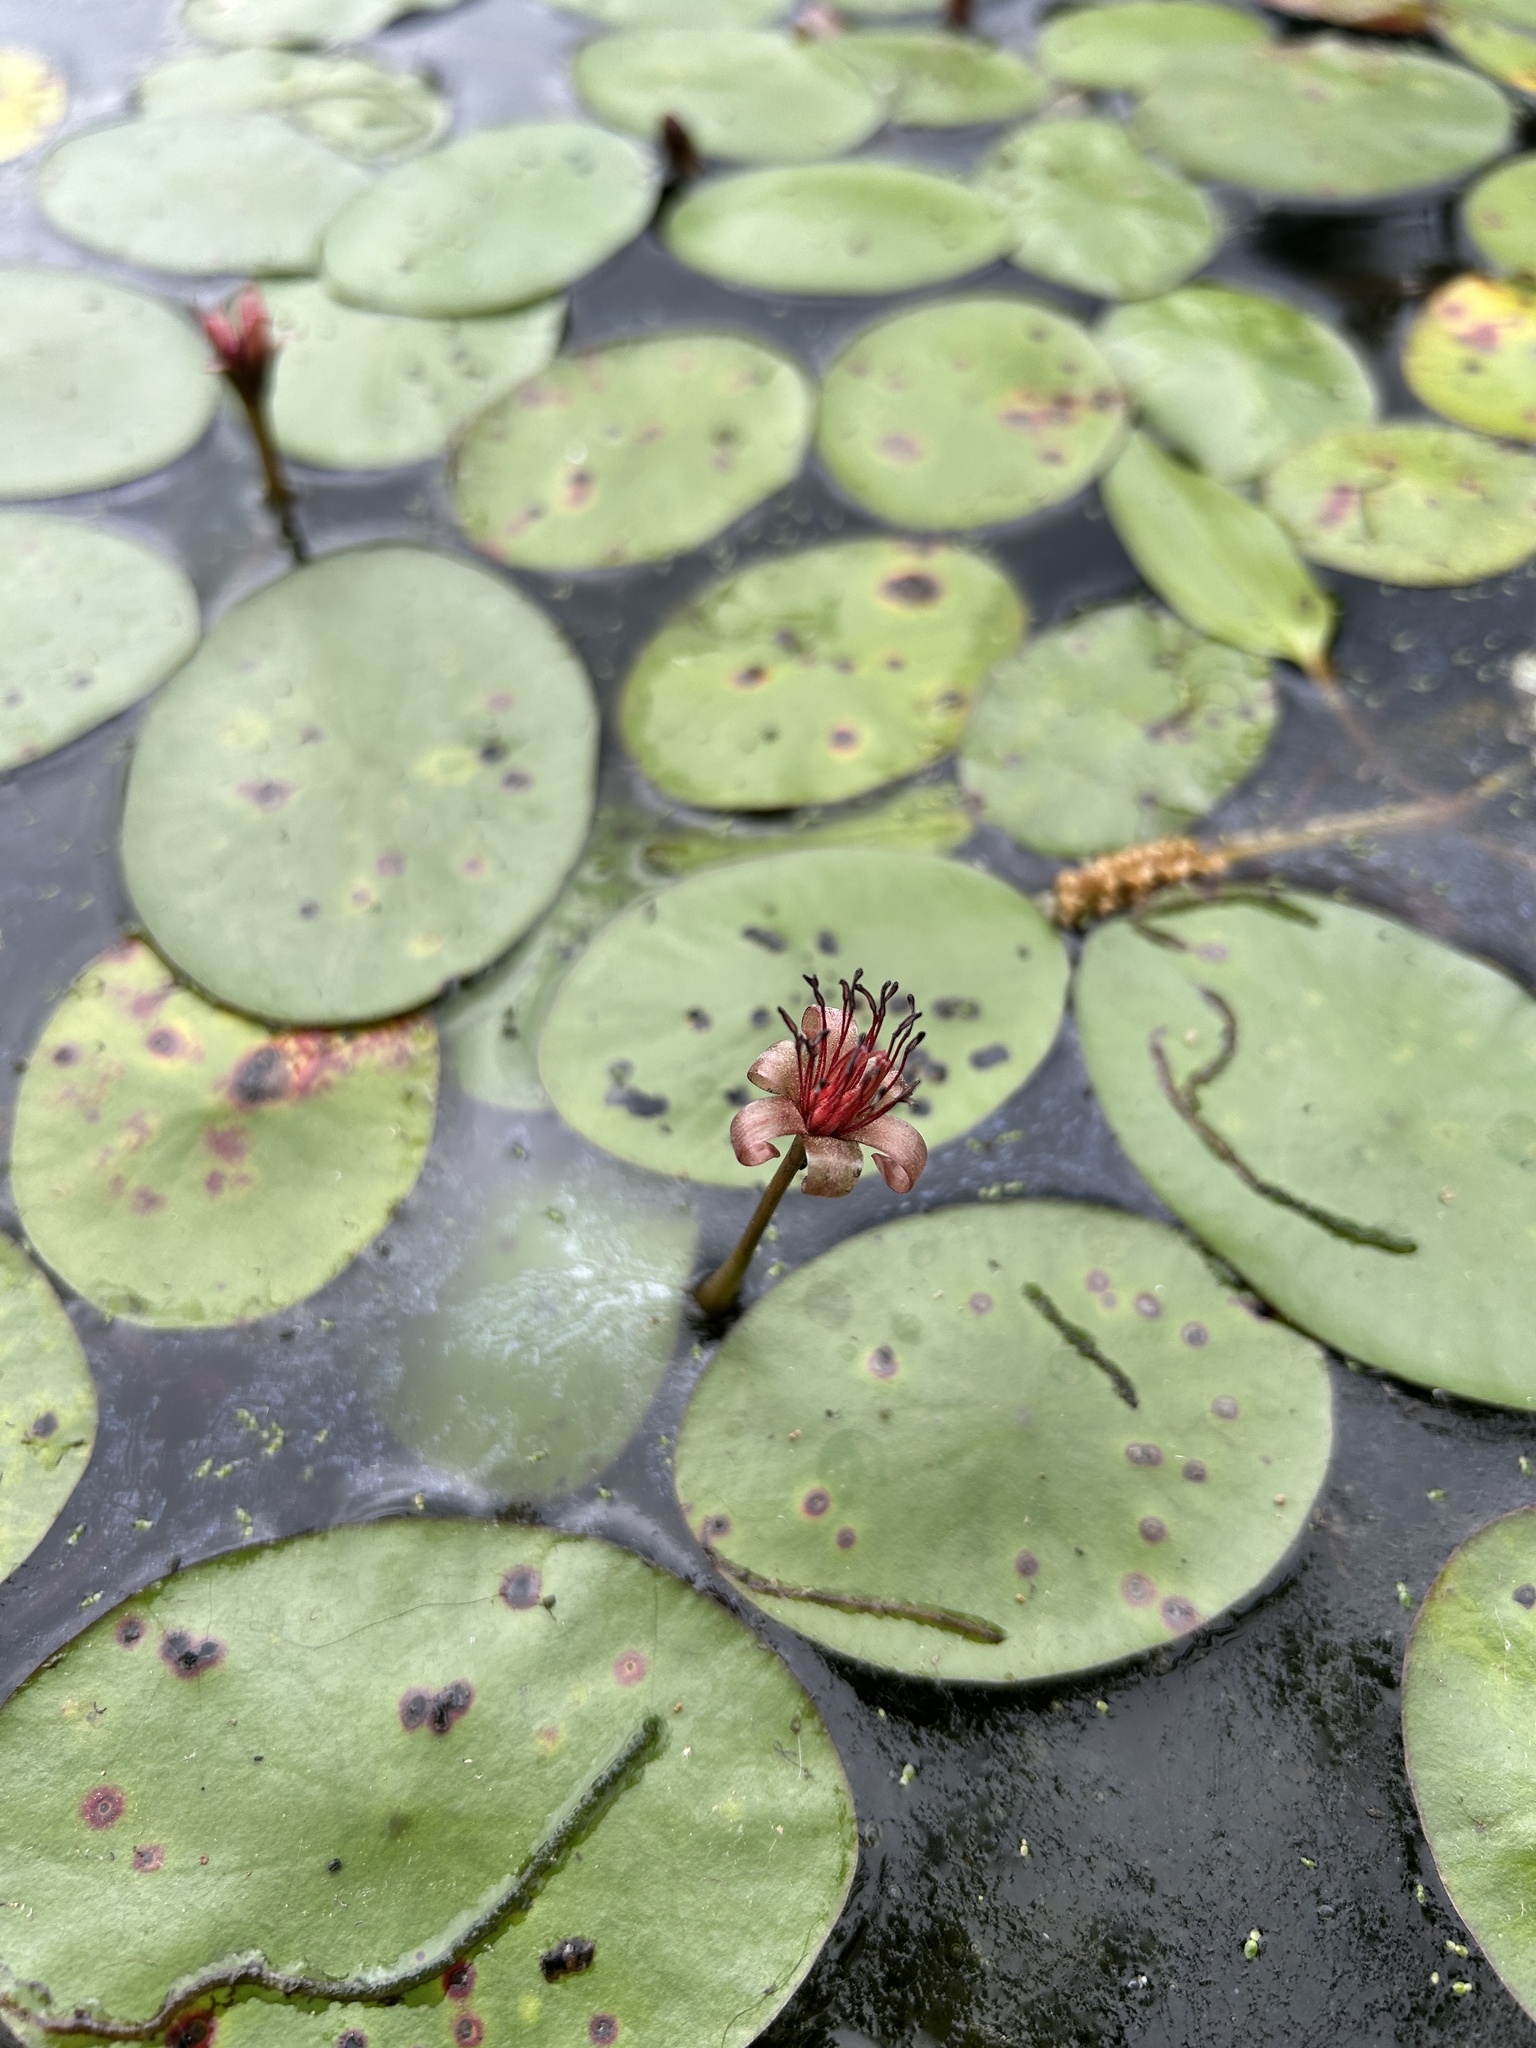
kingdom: Plantae
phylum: Tracheophyta
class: Magnoliopsida
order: Nymphaeales
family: Cabombaceae
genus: Brasenia
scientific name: Brasenia schreberi
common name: Water-shield
